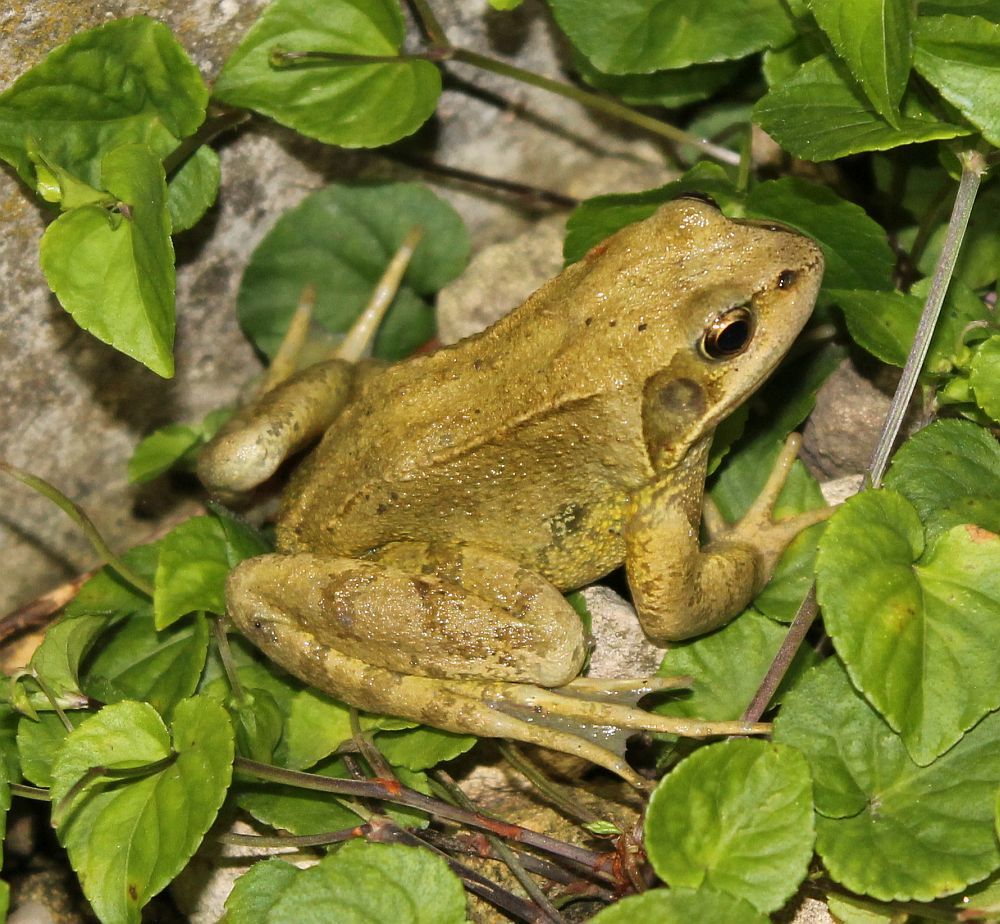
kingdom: Animalia
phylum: Chordata
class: Amphibia
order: Anura
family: Ranidae
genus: Rana
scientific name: Rana temporaria
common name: Common frog
